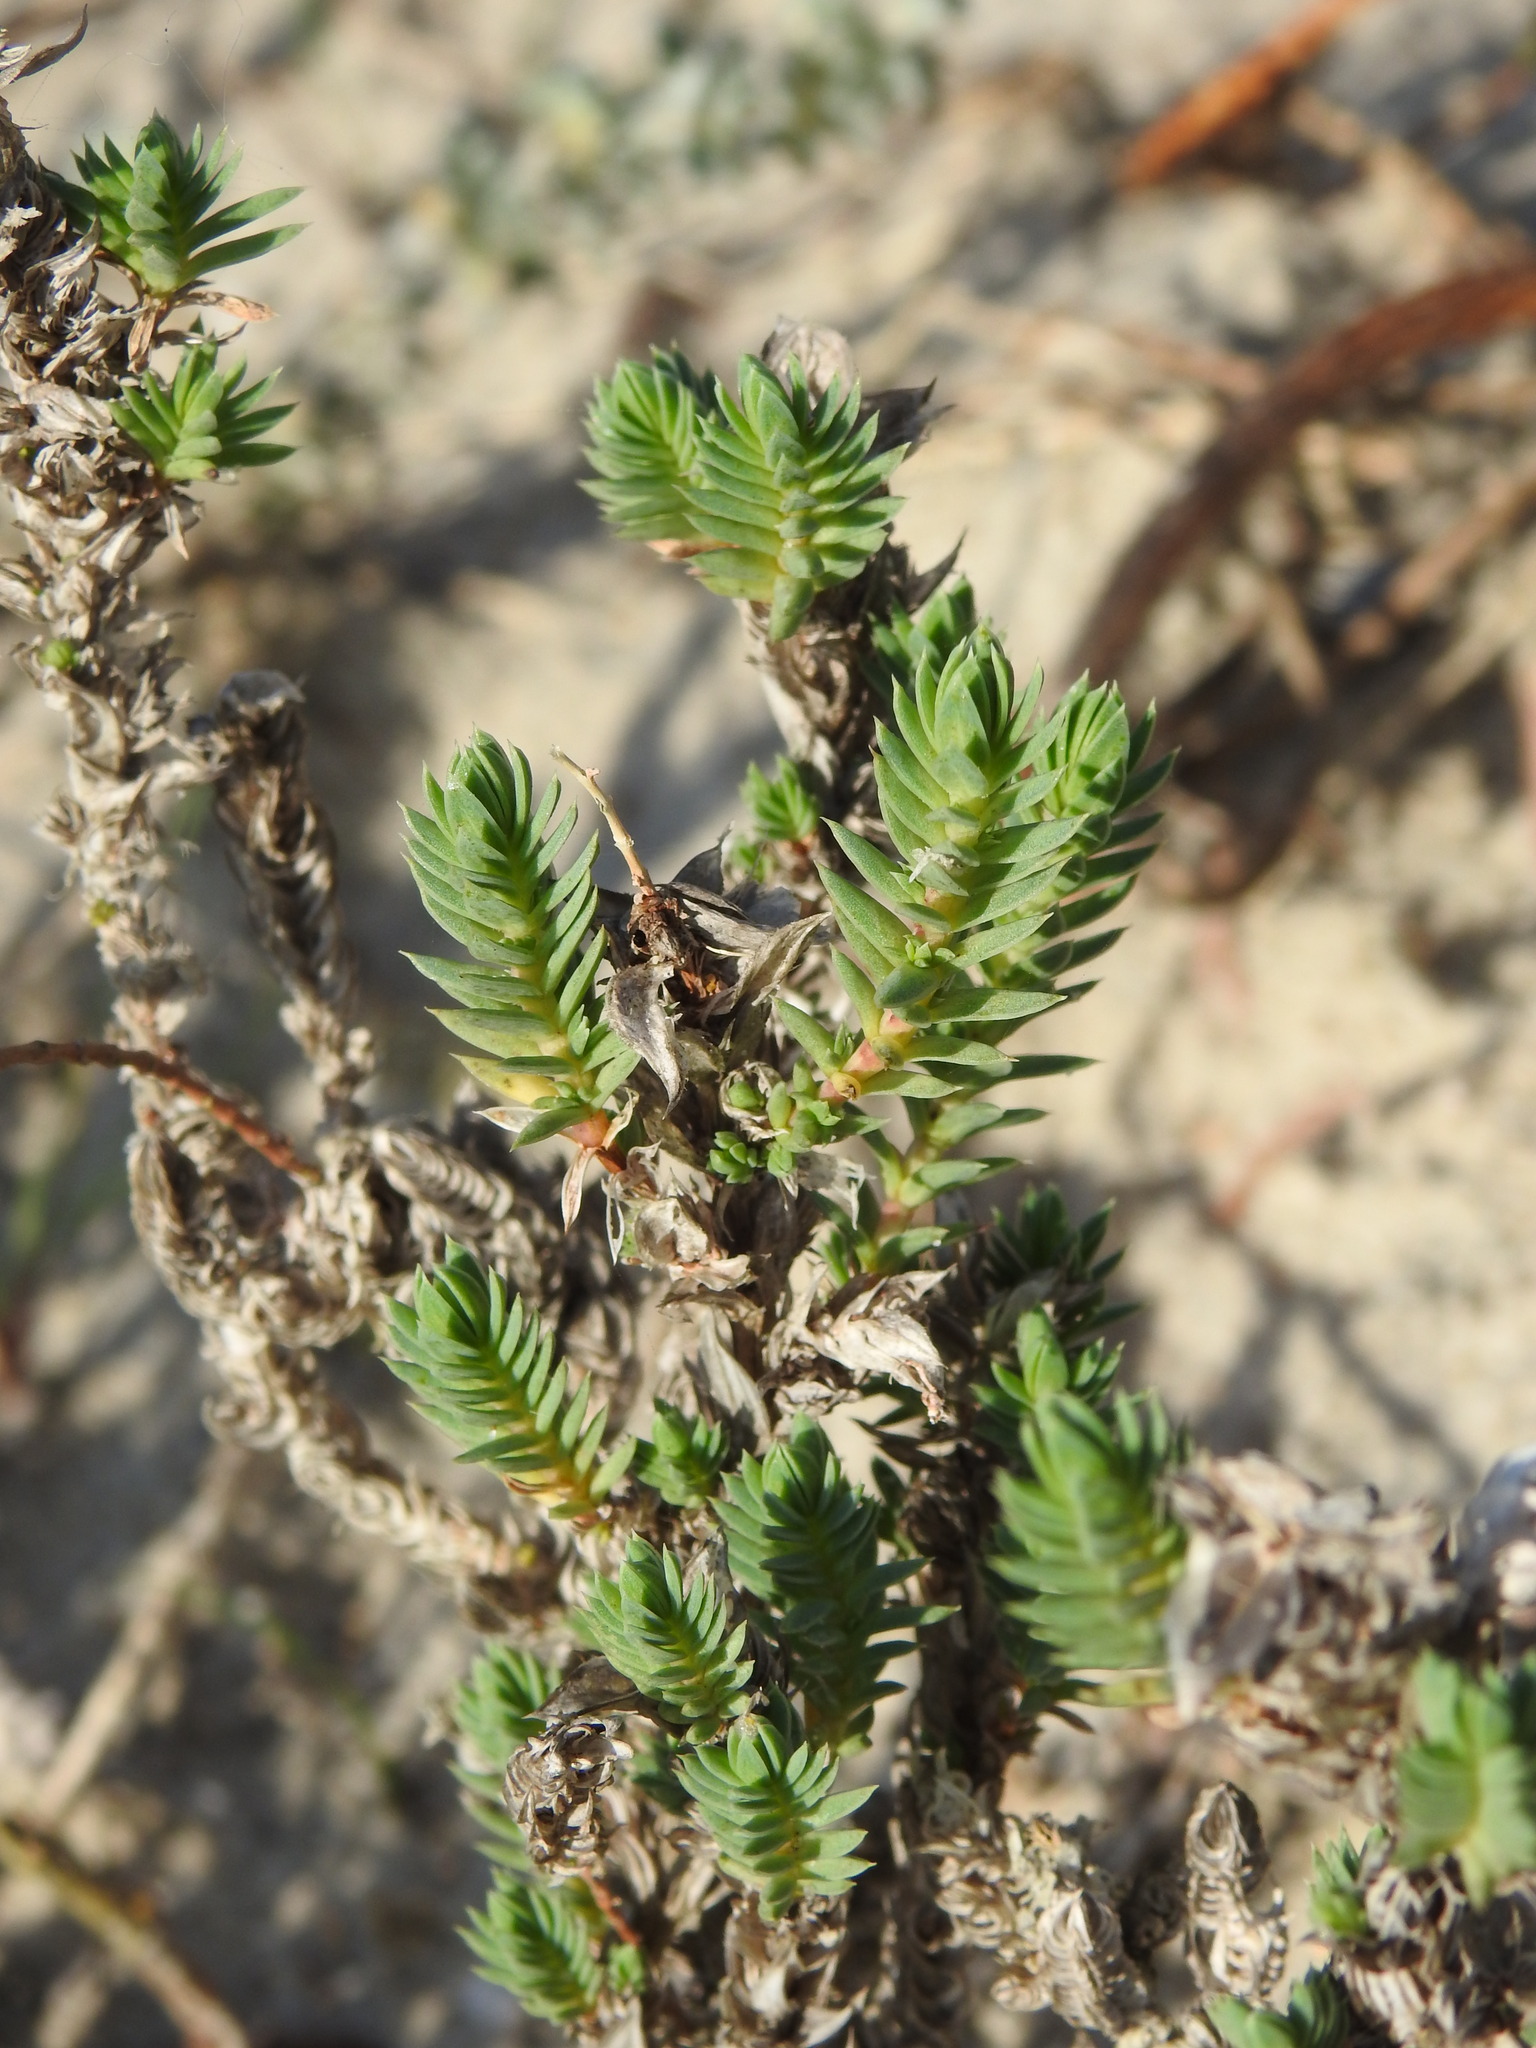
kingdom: Plantae
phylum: Tracheophyta
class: Magnoliopsida
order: Gentianales
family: Rubiaceae
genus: Crucianella
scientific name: Crucianella maritima
